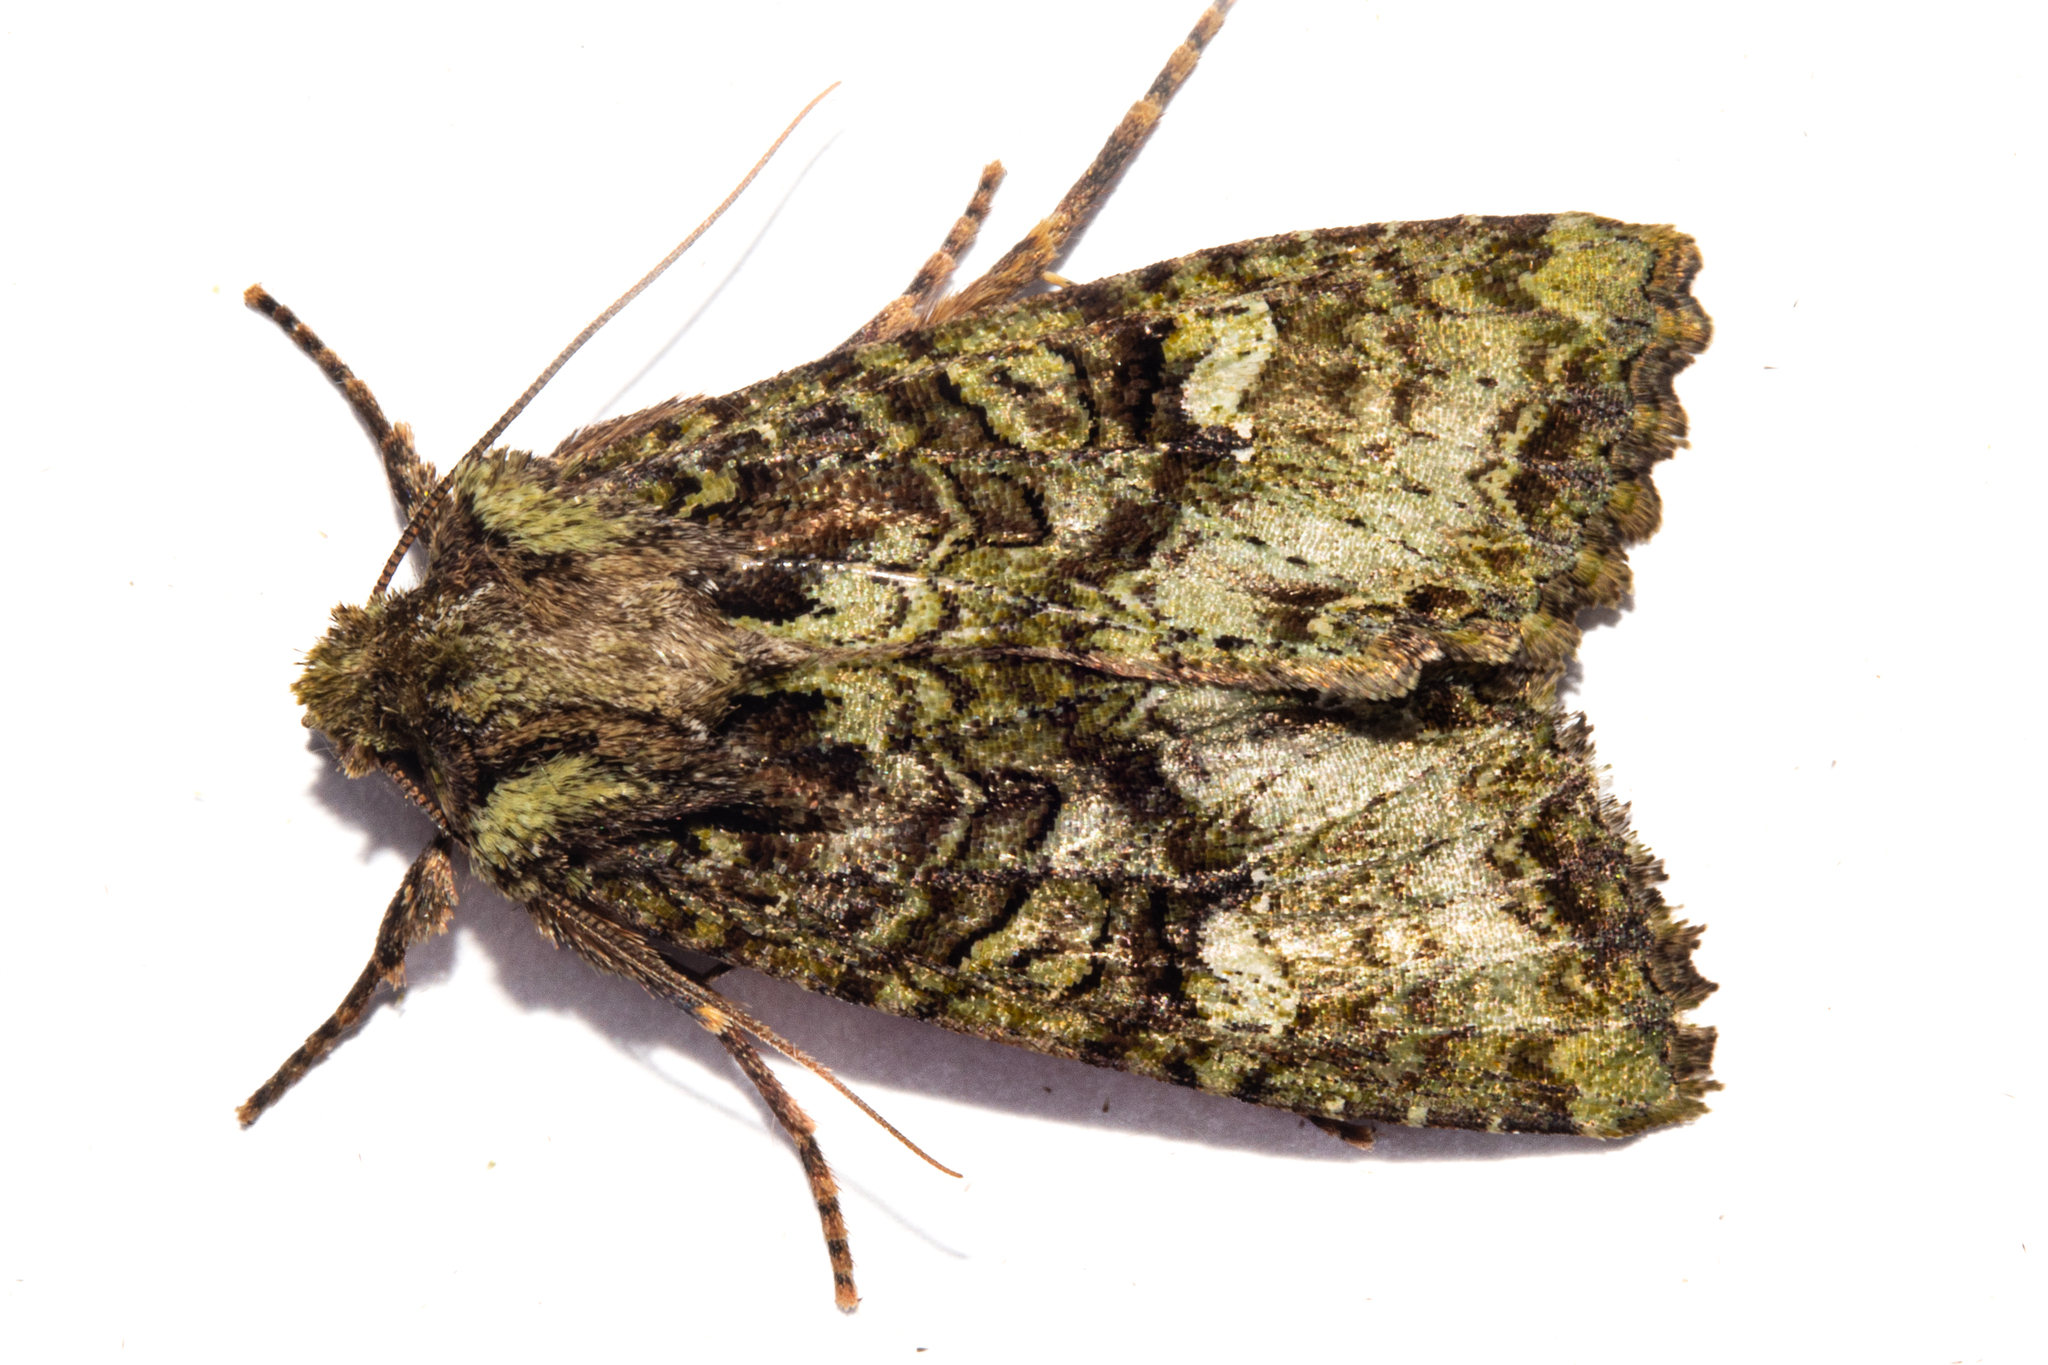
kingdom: Animalia
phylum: Arthropoda
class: Insecta
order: Lepidoptera
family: Noctuidae
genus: Meterana
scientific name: Meterana
